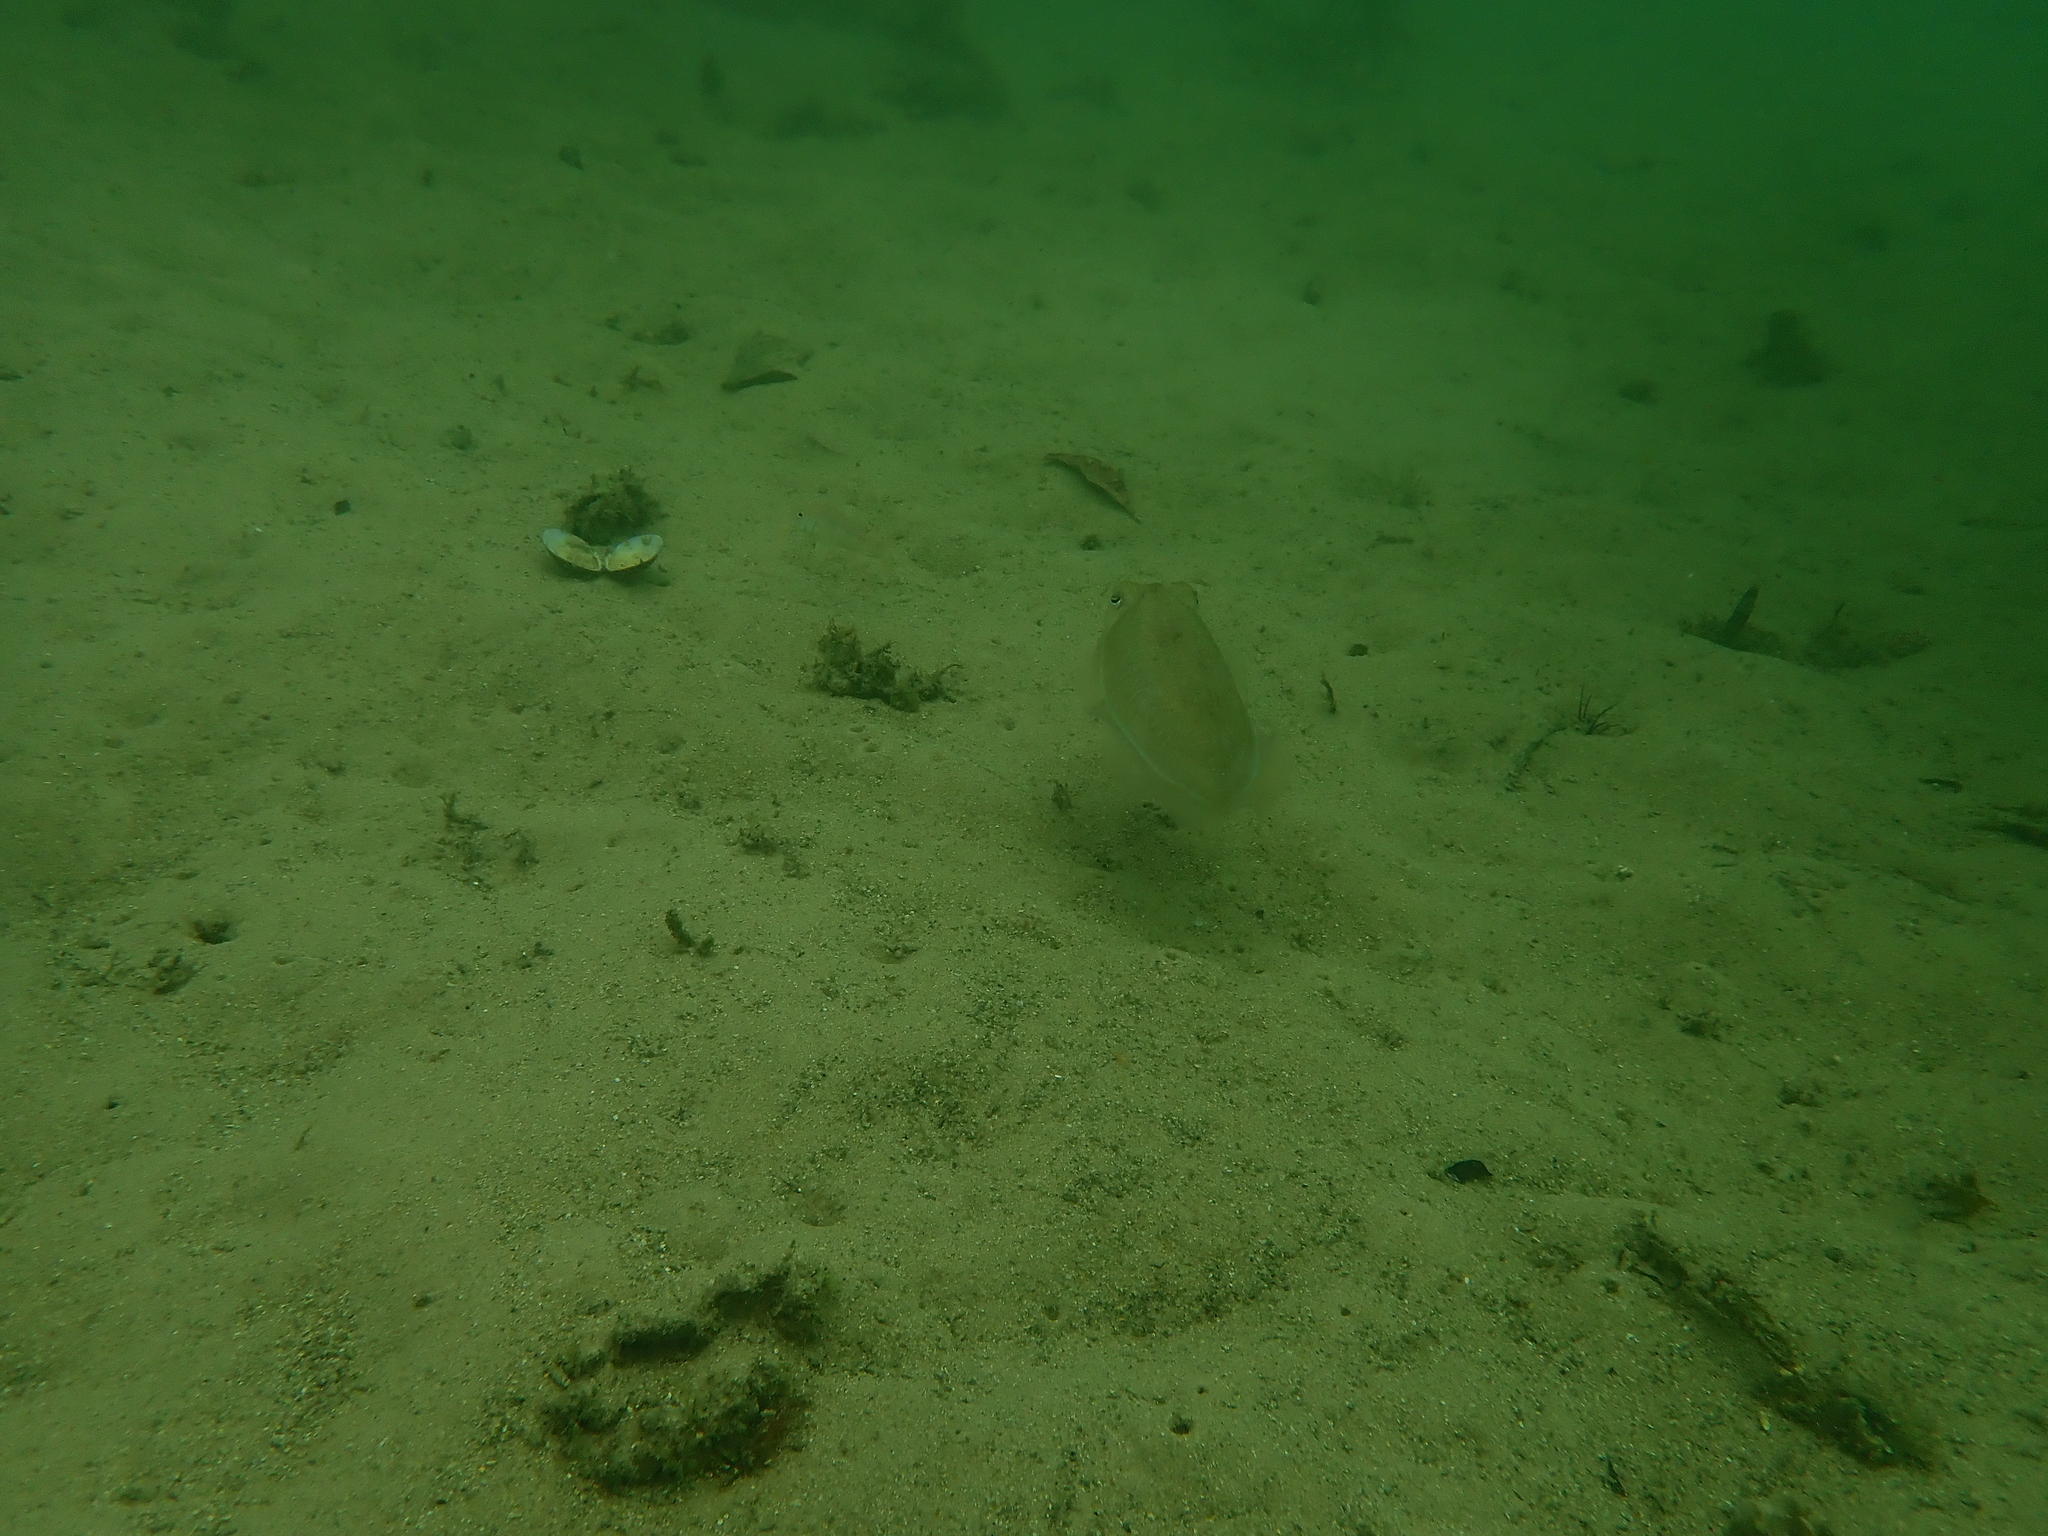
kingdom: Animalia
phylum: Mollusca
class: Cephalopoda
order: Sepiida
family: Sepiidae
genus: Ascarosepion
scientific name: Ascarosepion plangon
